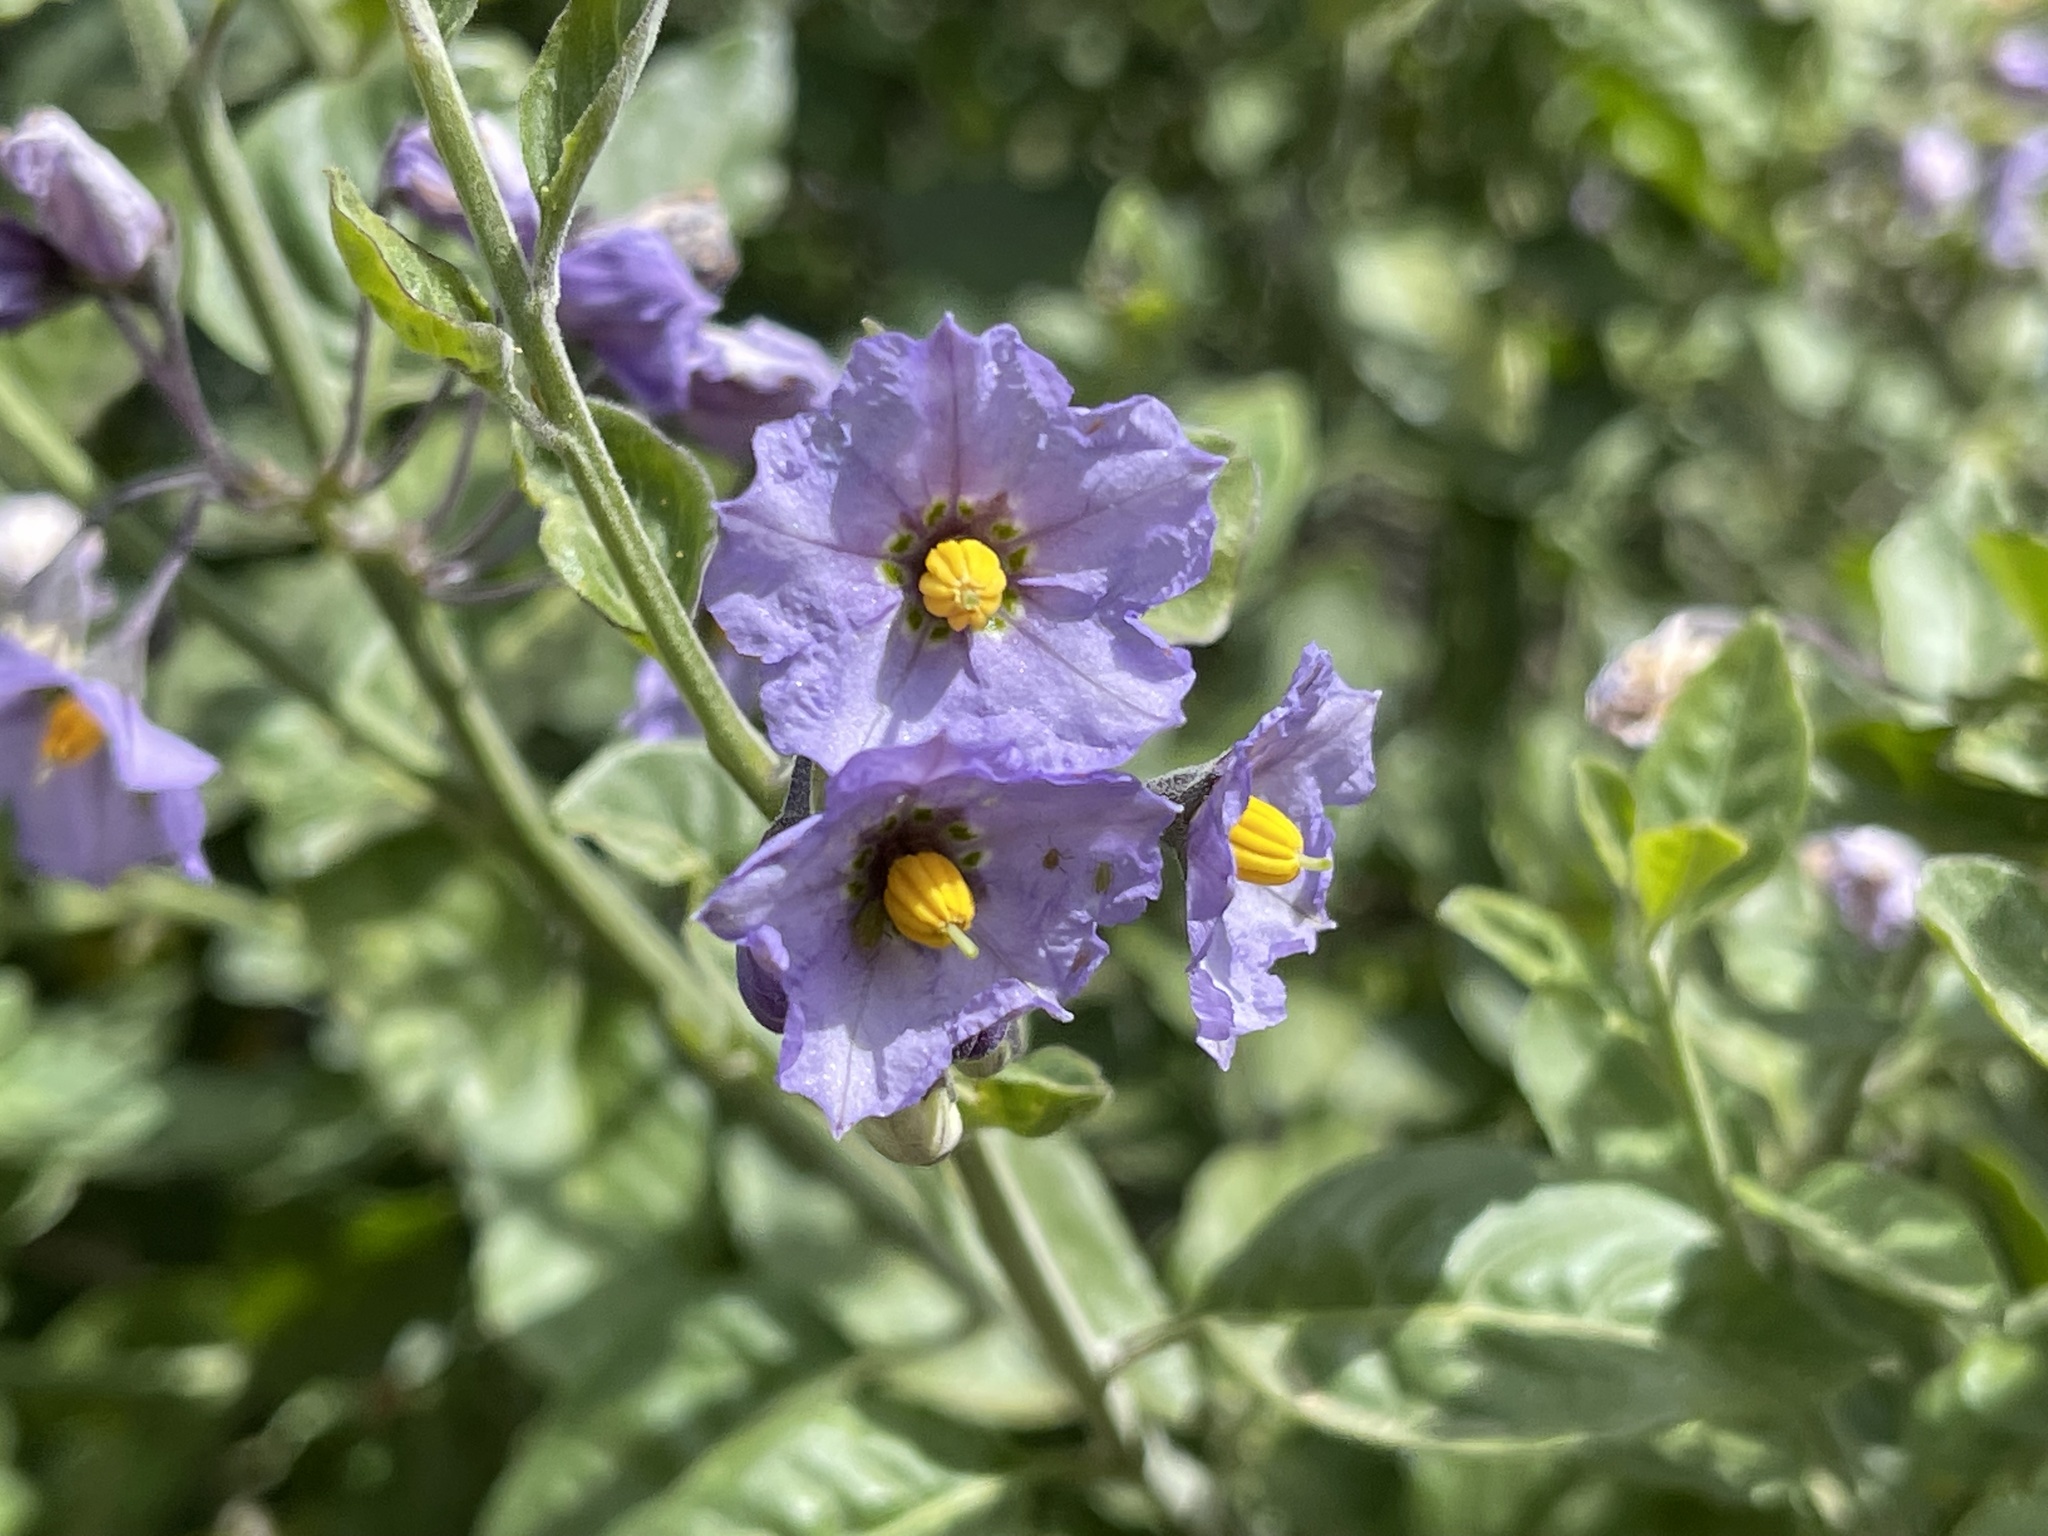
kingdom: Plantae
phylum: Tracheophyta
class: Magnoliopsida
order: Solanales
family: Solanaceae
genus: Solanum
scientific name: Solanum umbelliferum
